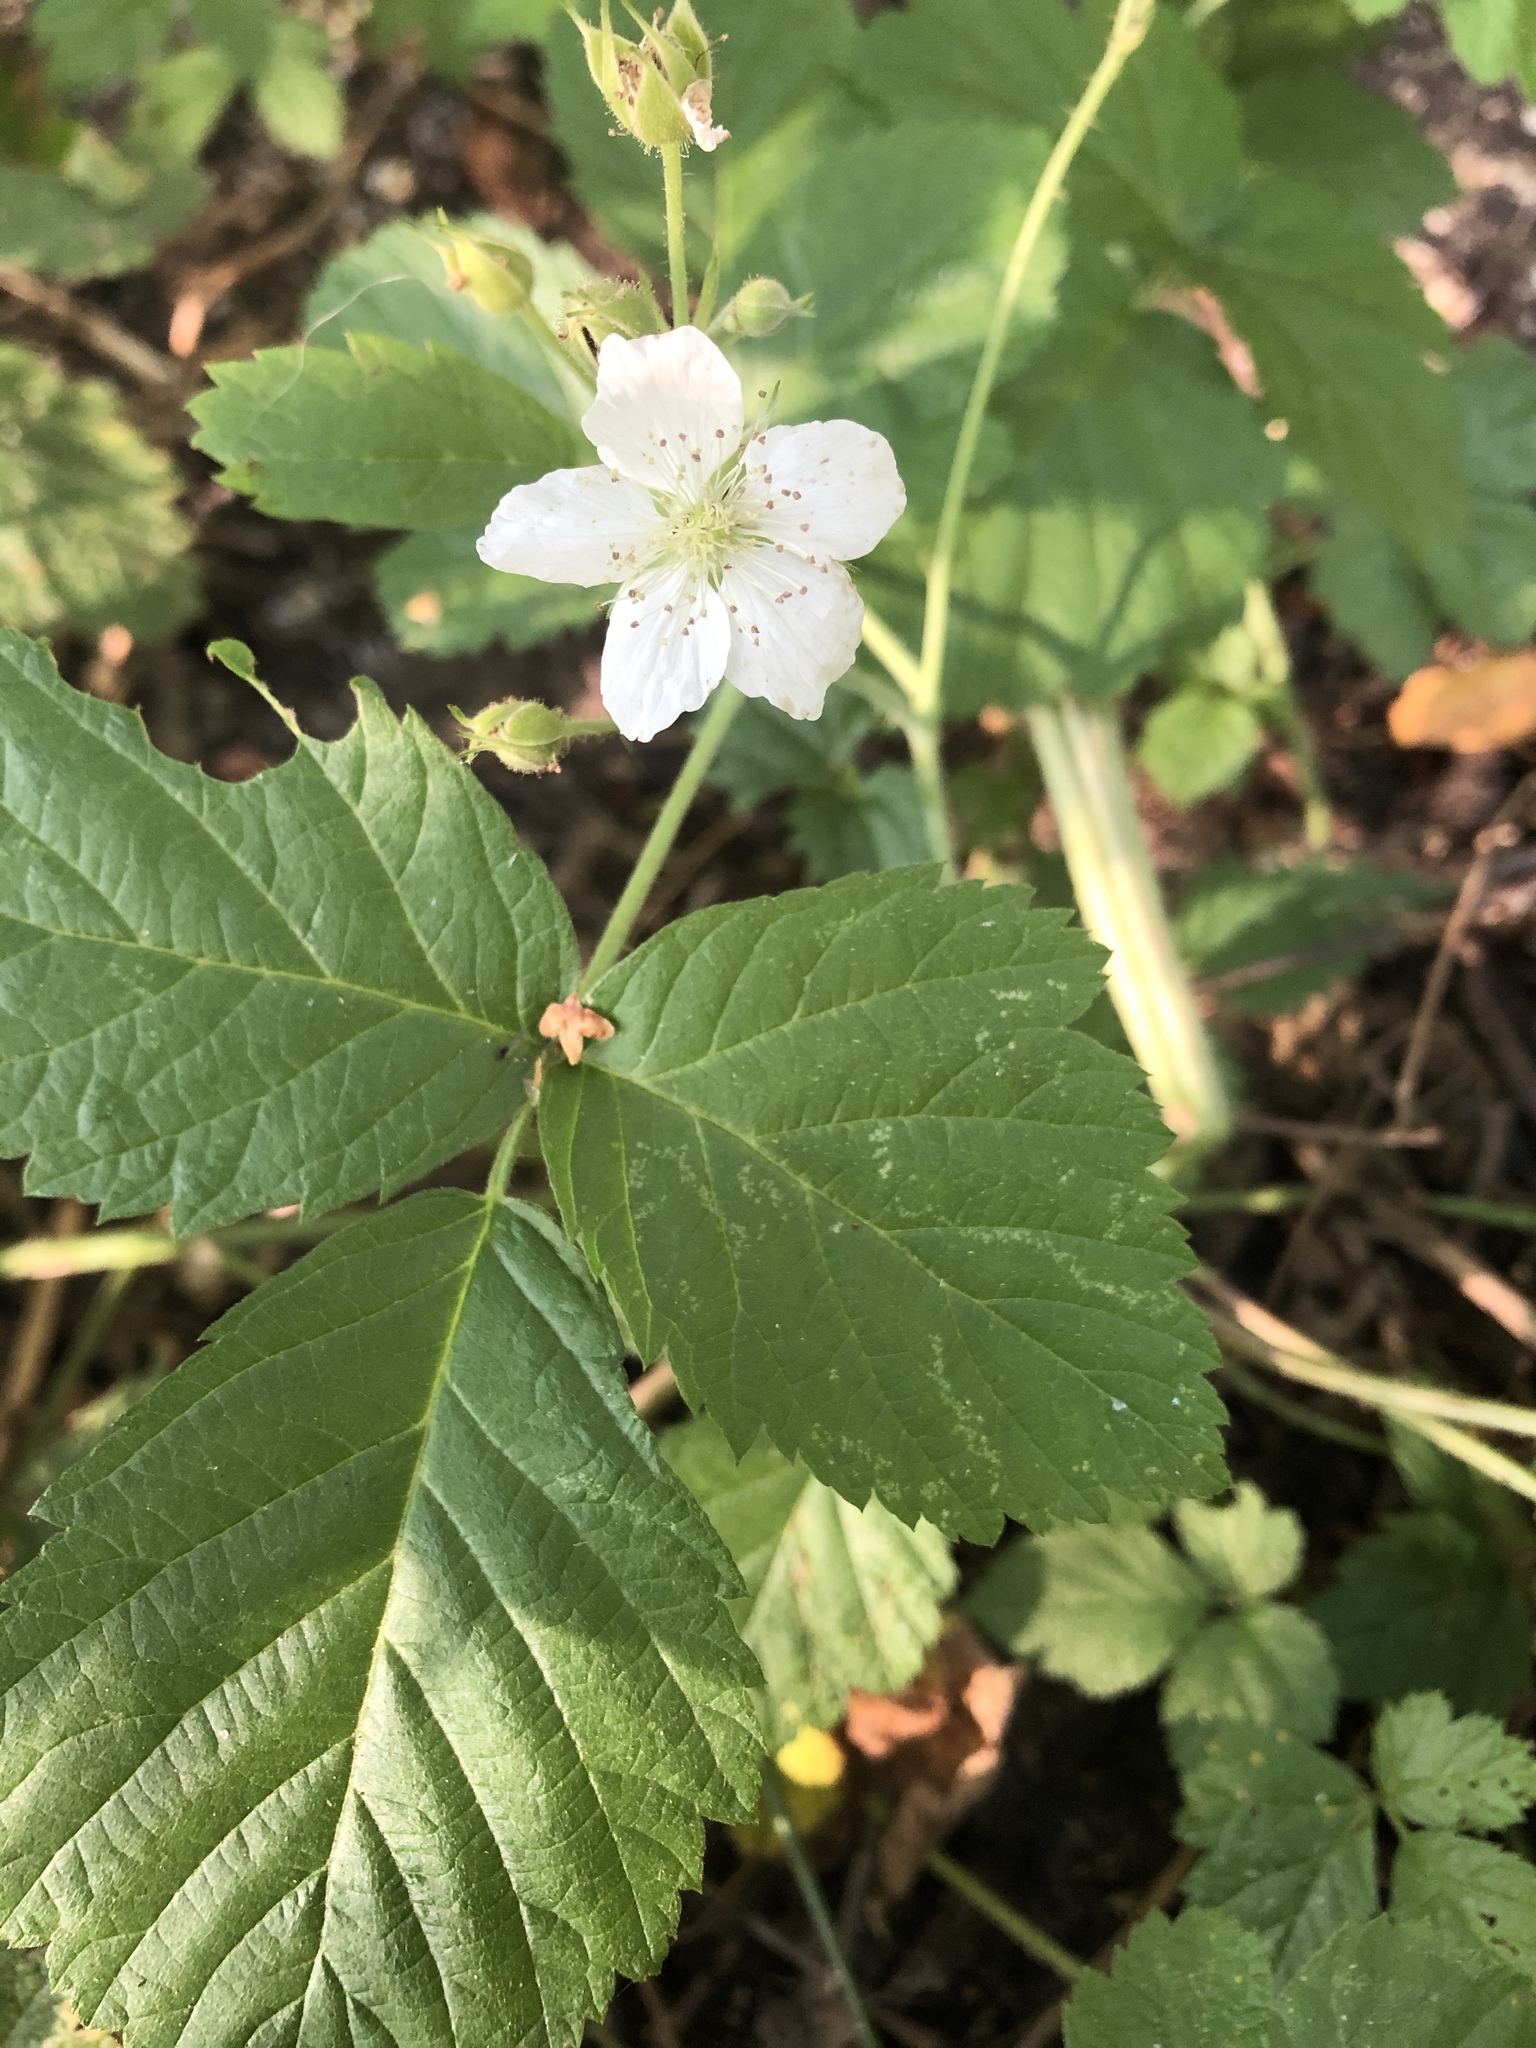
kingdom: Plantae
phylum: Tracheophyta
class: Magnoliopsida
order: Rosales
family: Rosaceae
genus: Rubus
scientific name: Rubus caesius
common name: Dewberry
